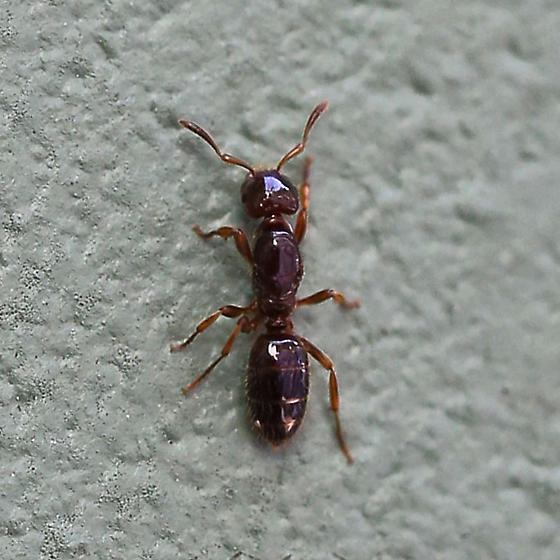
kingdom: Animalia
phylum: Arthropoda
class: Insecta
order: Hymenoptera
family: Formicidae
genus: Lasius
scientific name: Lasius claviger
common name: Common citronella ant
